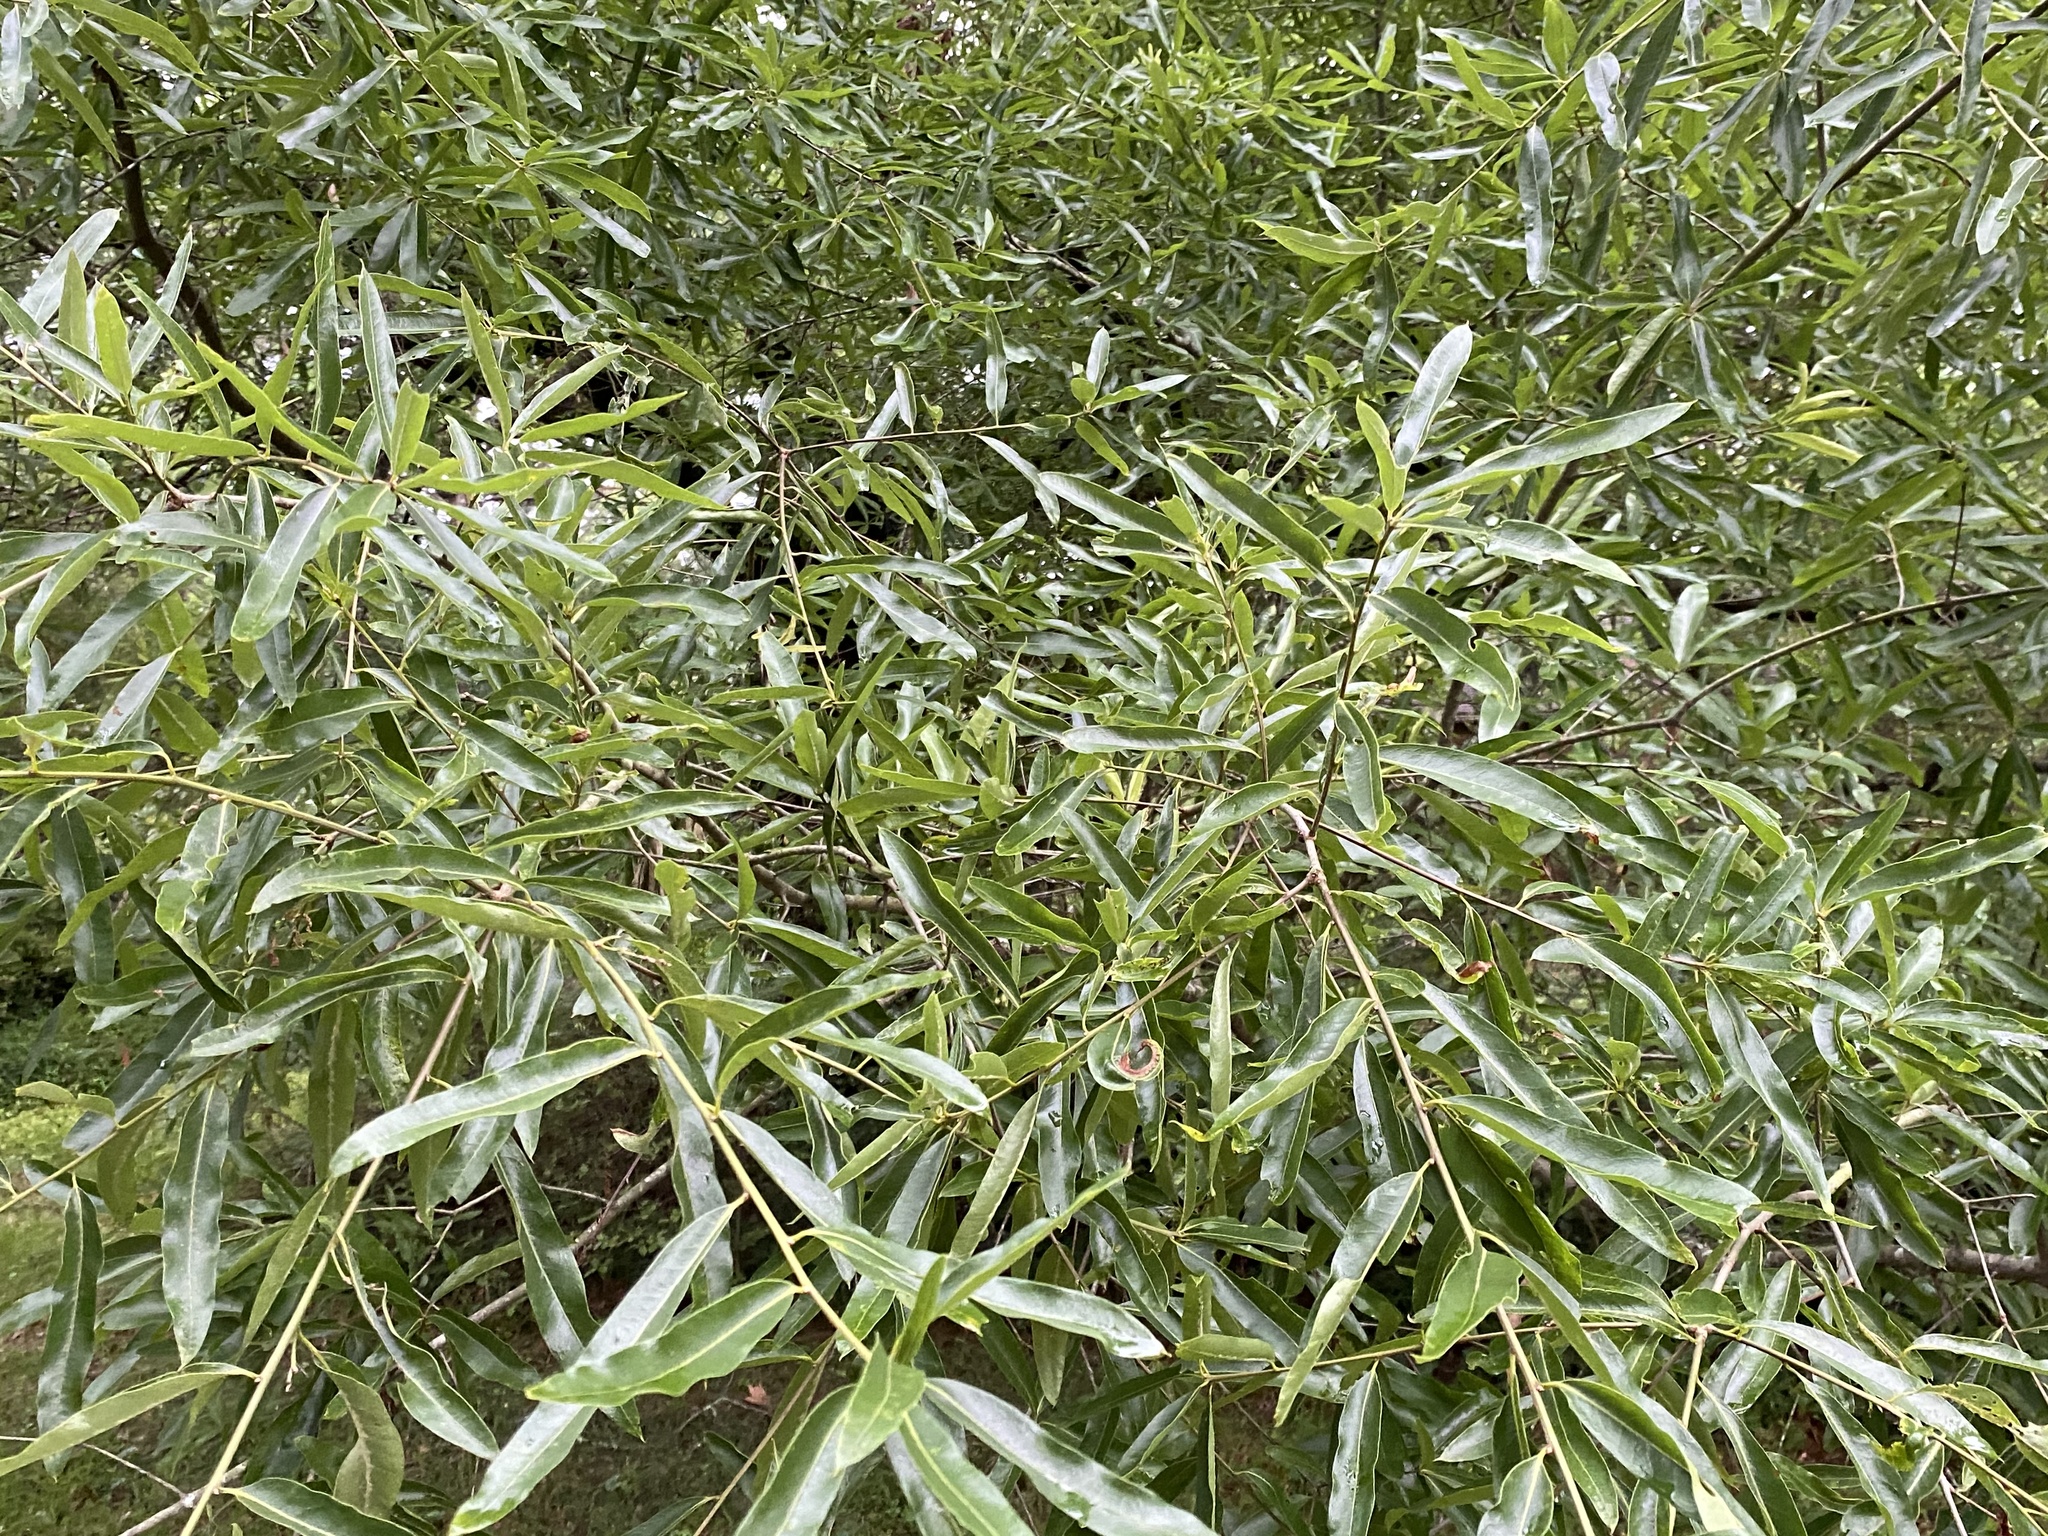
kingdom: Plantae
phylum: Tracheophyta
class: Magnoliopsida
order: Fagales
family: Fagaceae
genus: Quercus
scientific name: Quercus phellos
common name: Willow oak
